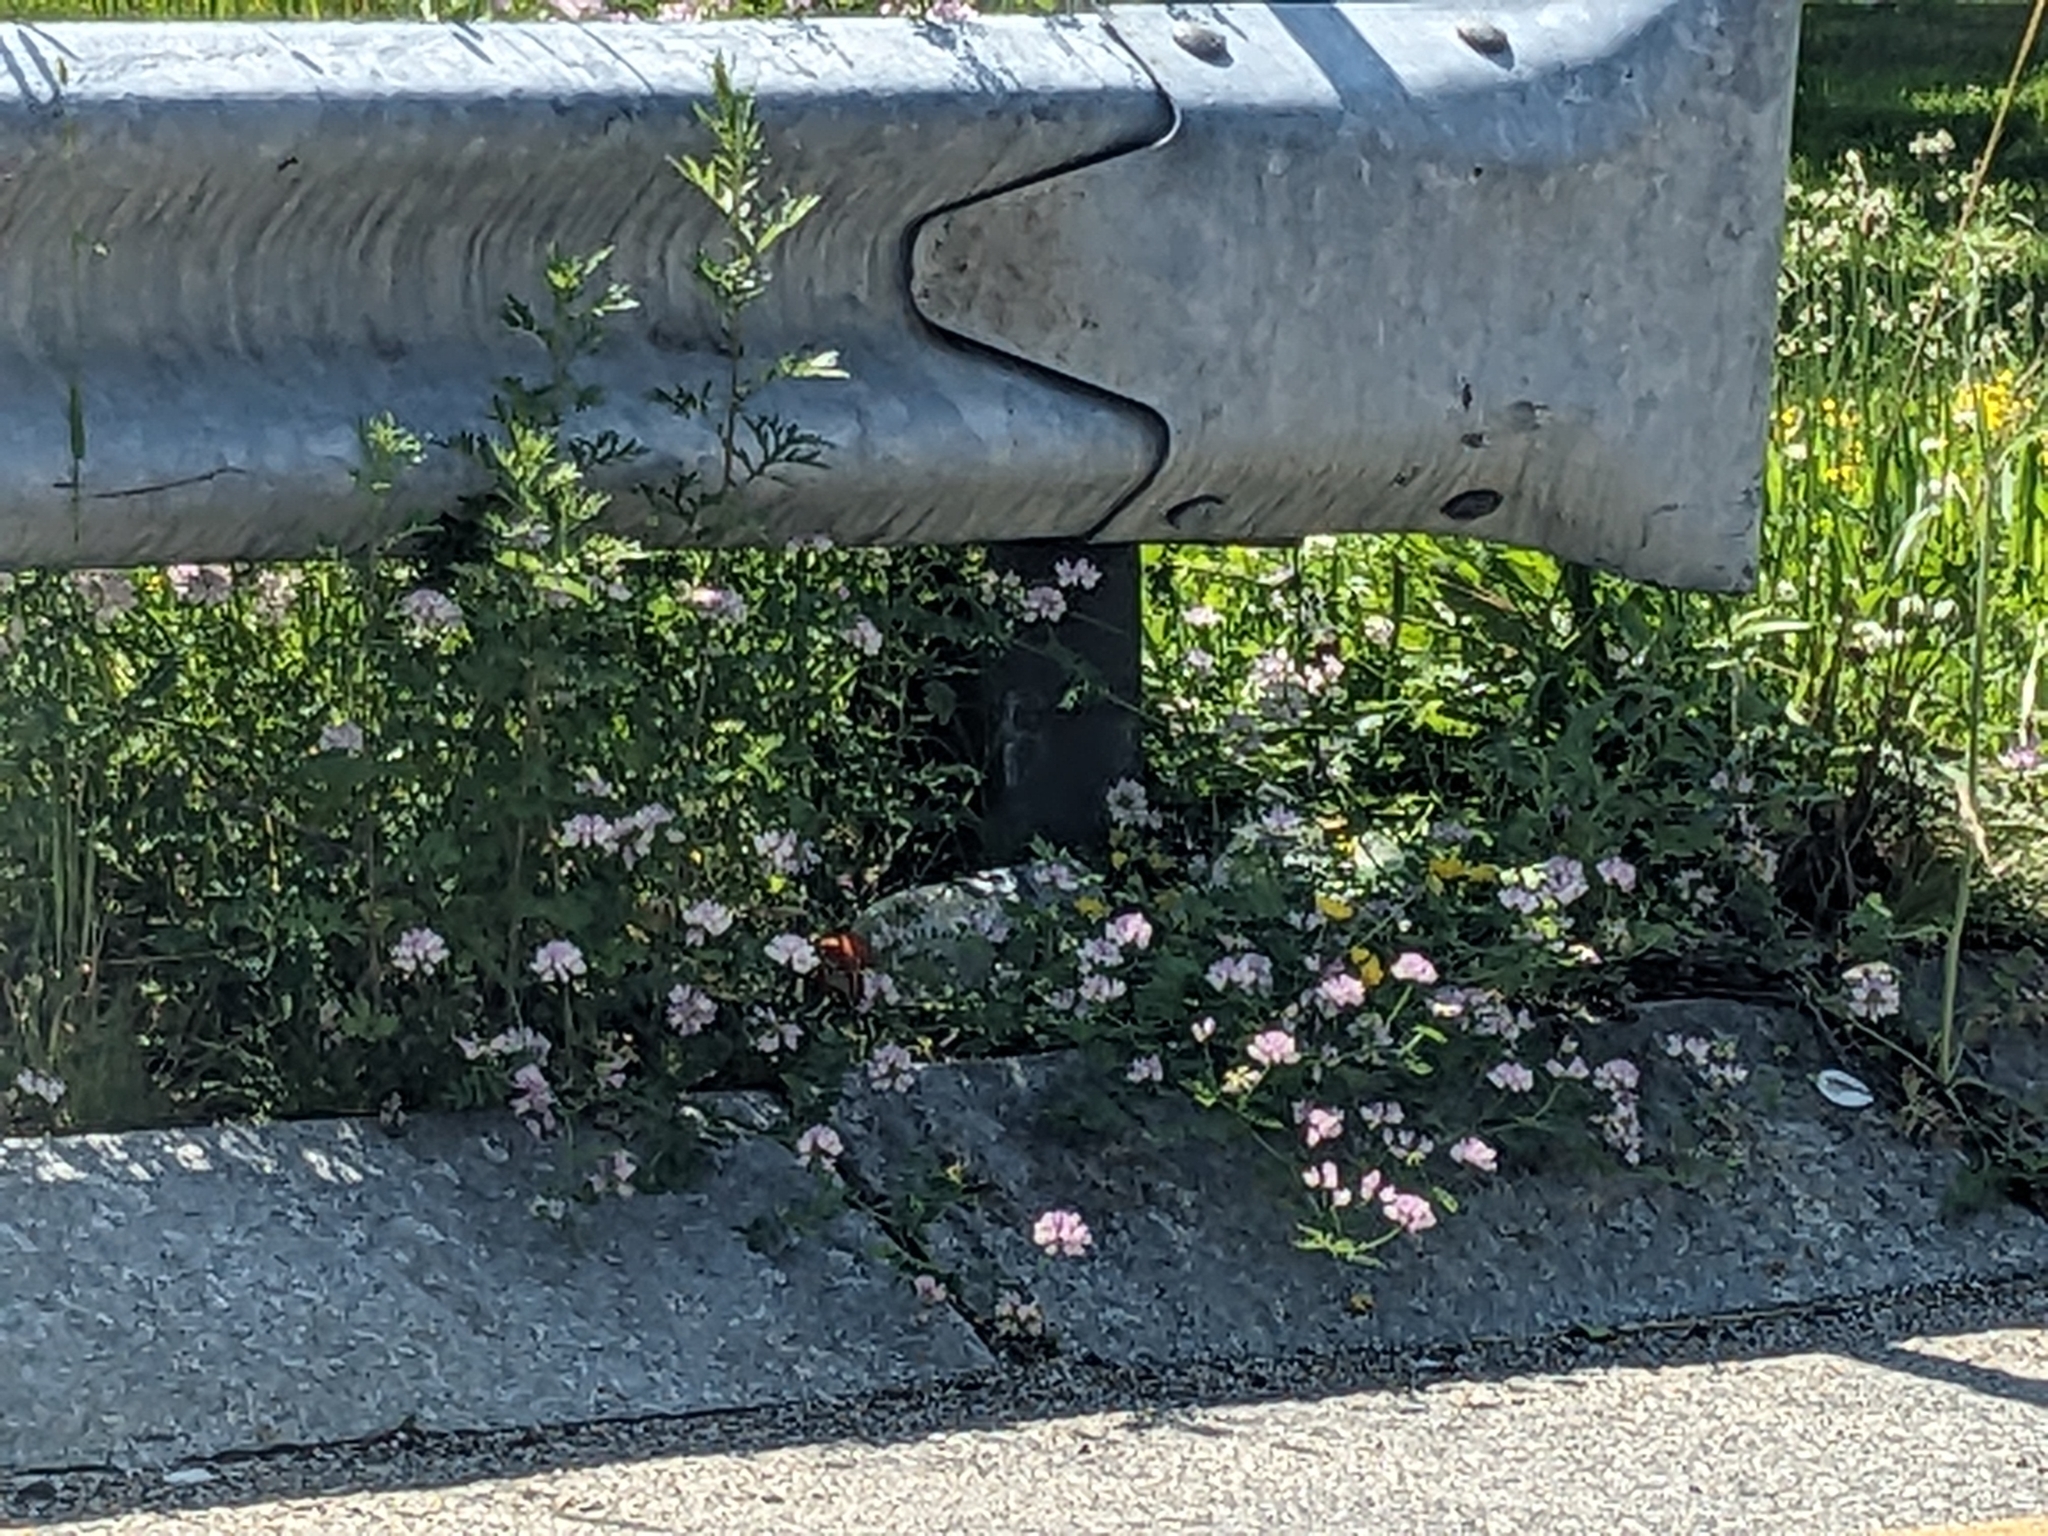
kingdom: Plantae
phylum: Tracheophyta
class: Magnoliopsida
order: Fabales
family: Fabaceae
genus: Coronilla
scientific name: Coronilla varia
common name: Crownvetch
